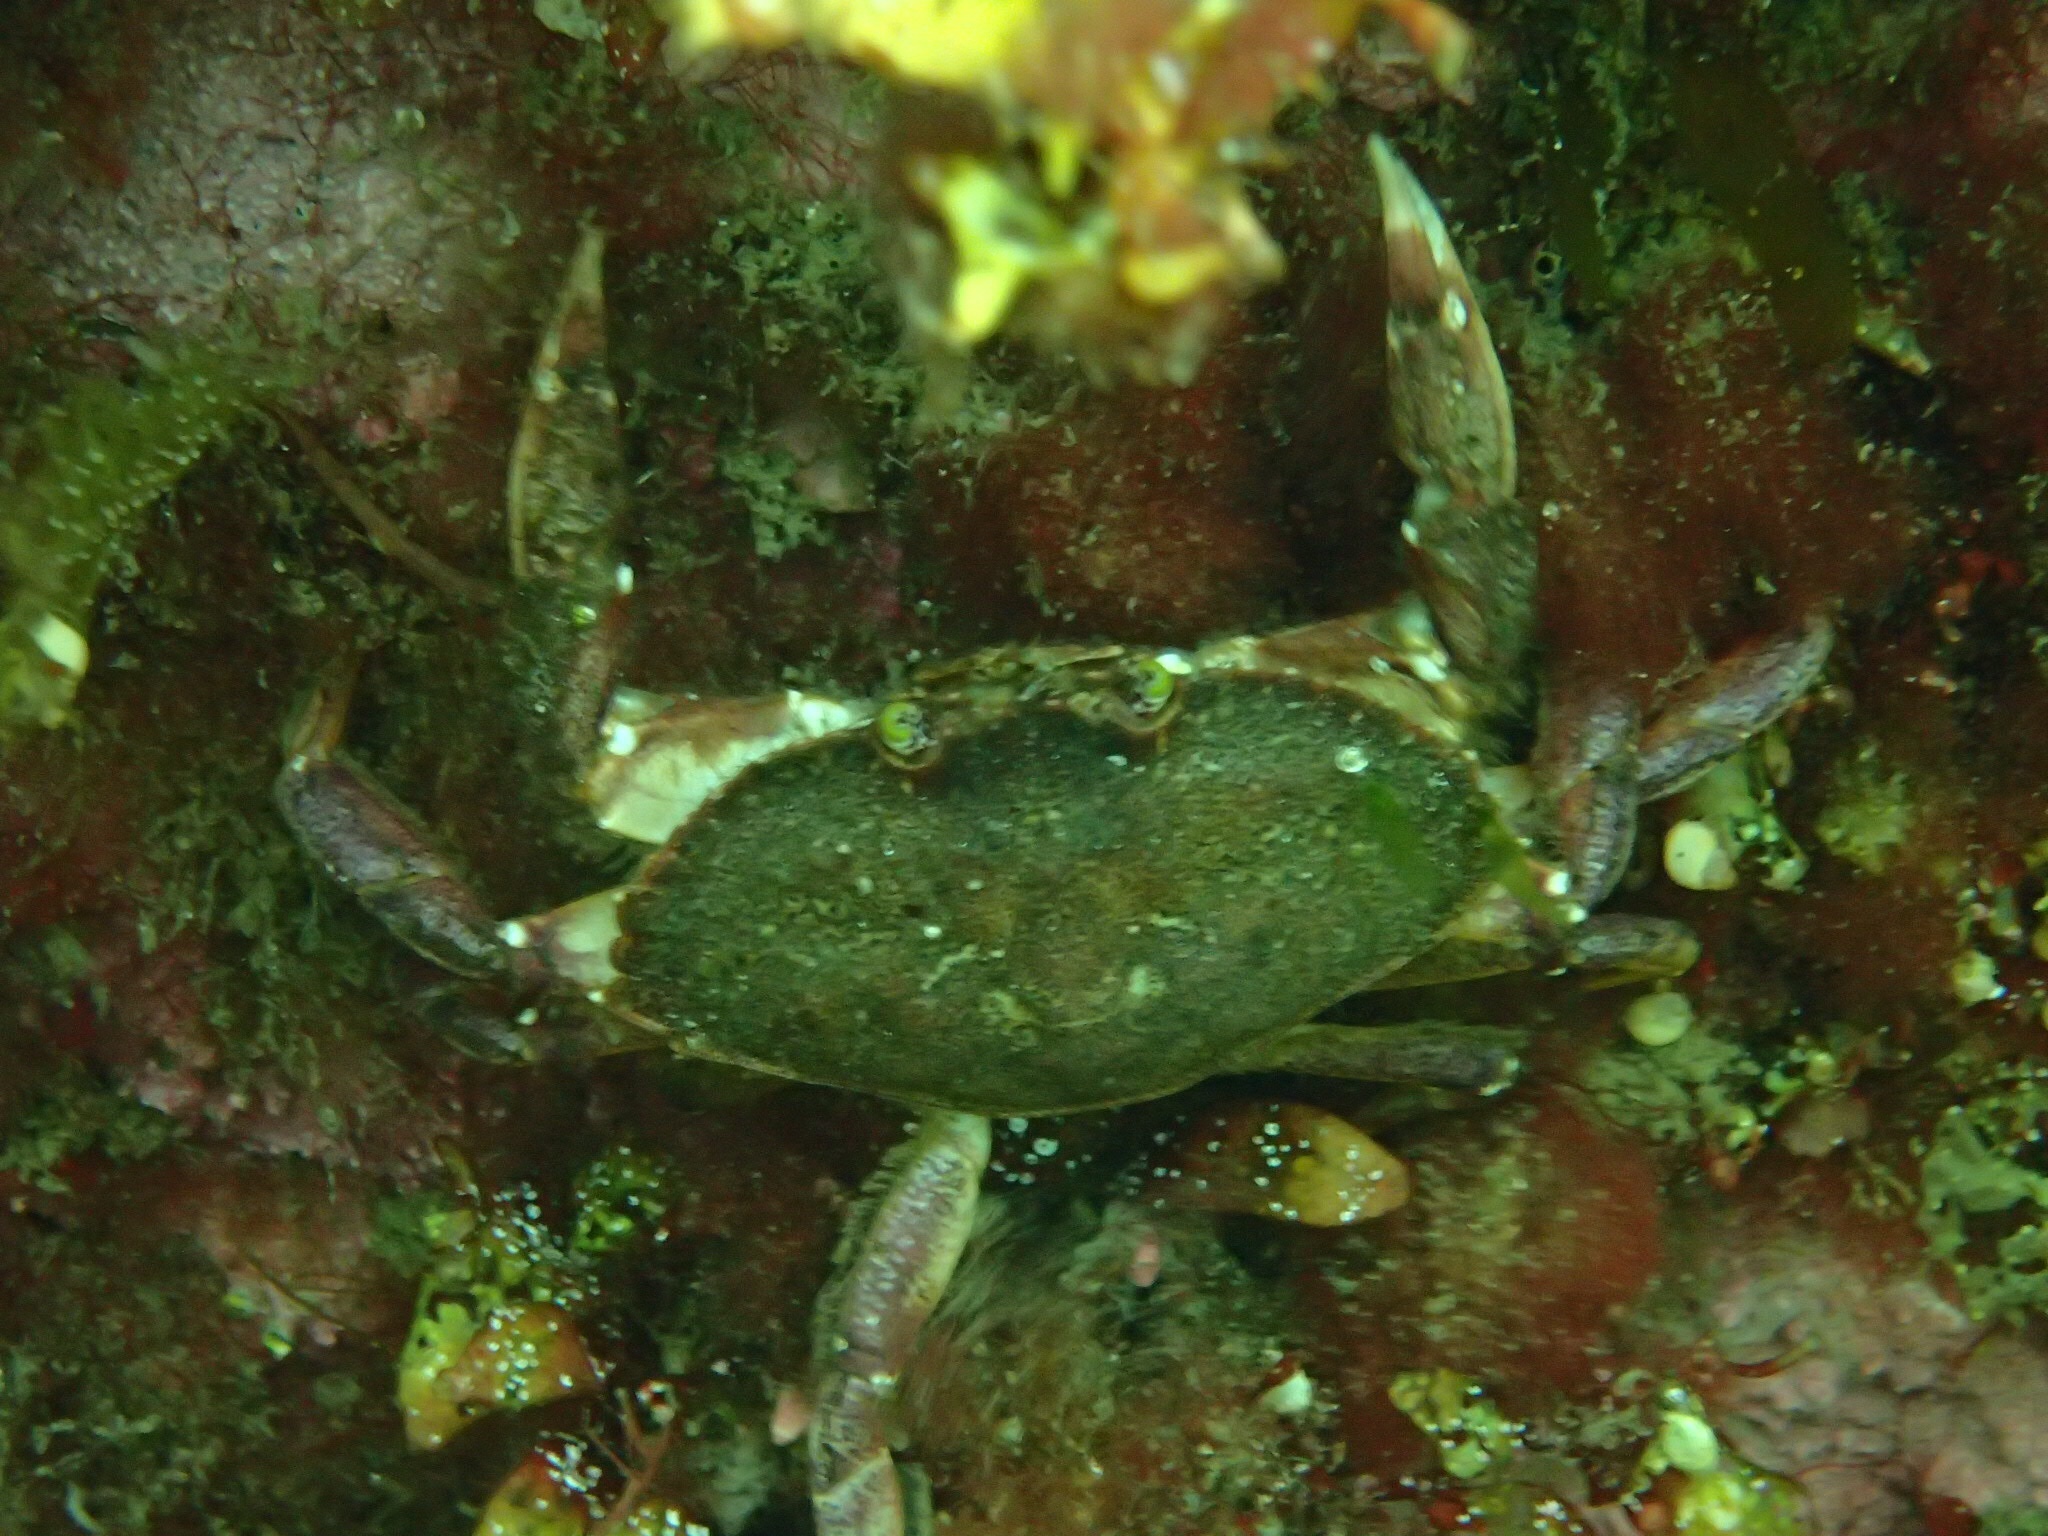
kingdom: Animalia
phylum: Arthropoda
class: Malacostraca
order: Decapoda
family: Cancridae
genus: Cancer
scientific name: Cancer irroratus
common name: Atlantic rock crab
